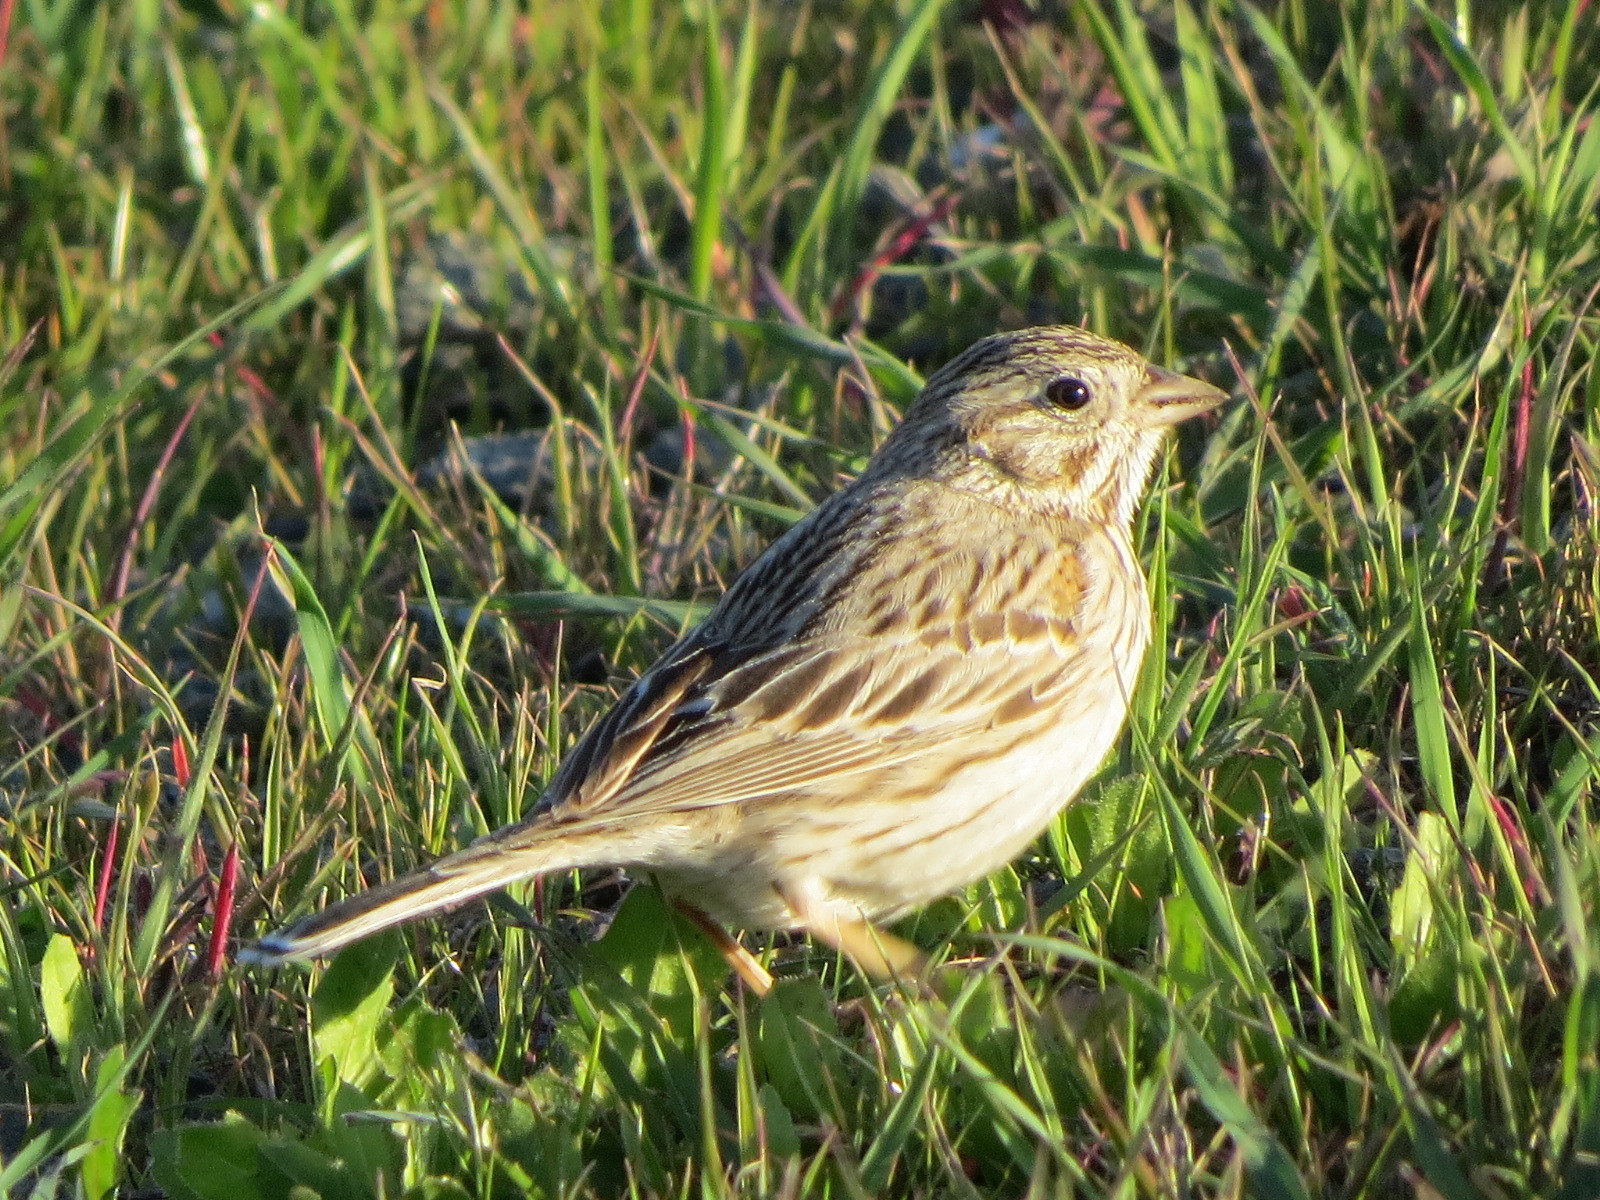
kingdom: Animalia
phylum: Chordata
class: Aves
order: Passeriformes
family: Passerellidae
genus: Pooecetes
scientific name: Pooecetes gramineus
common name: Vesper sparrow
